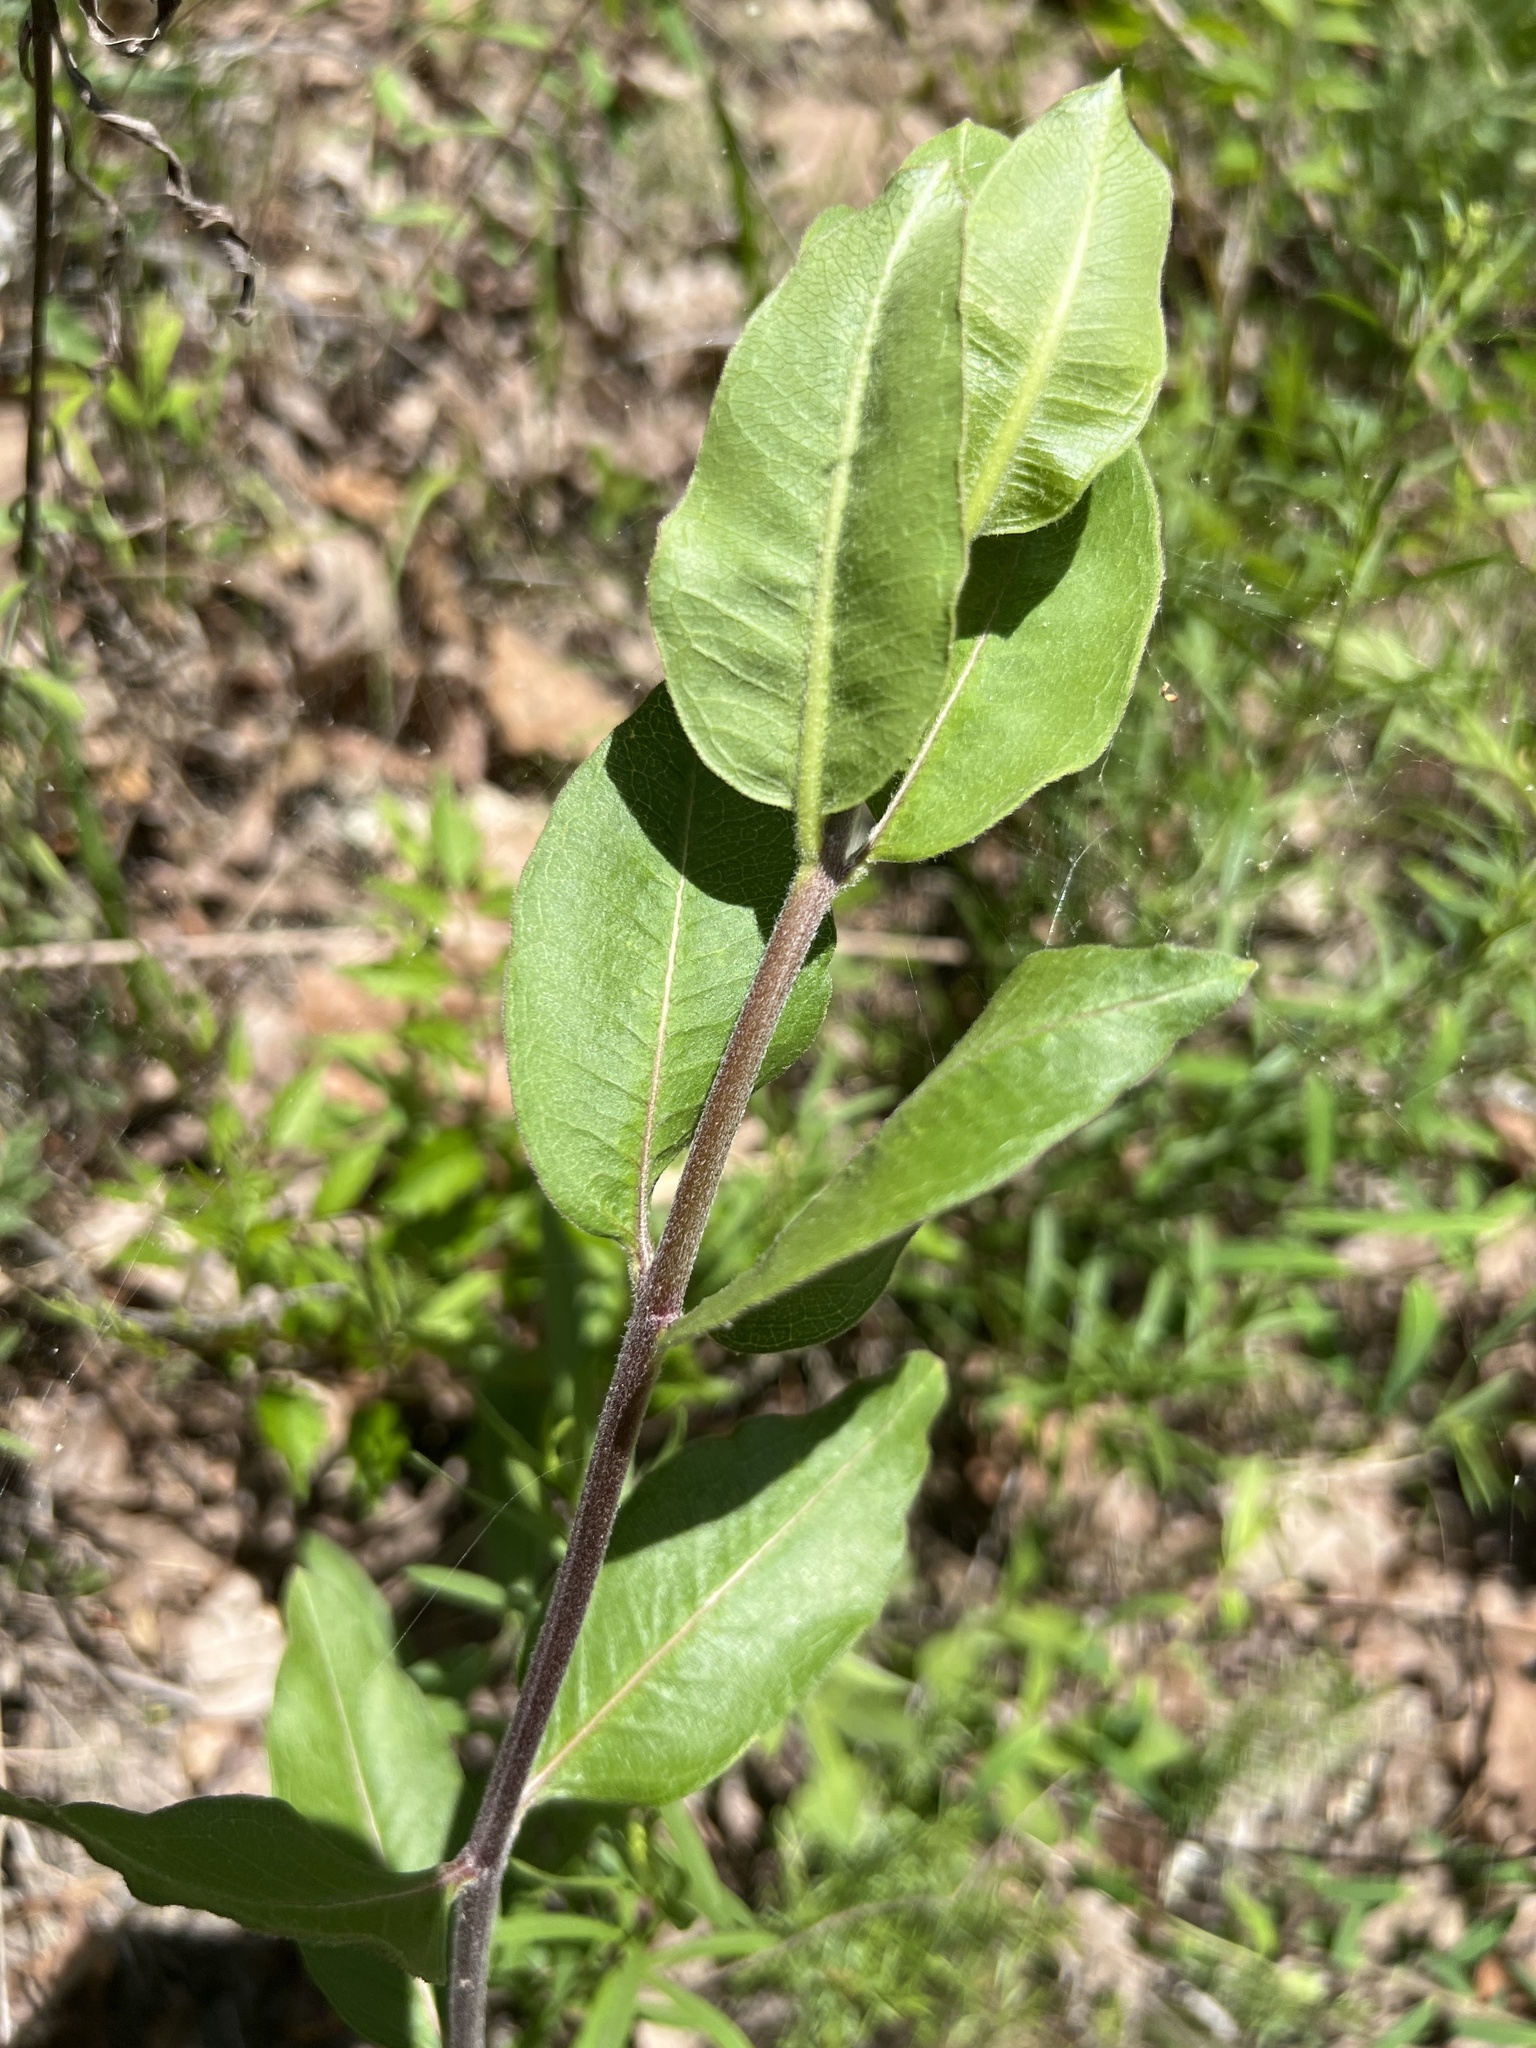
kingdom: Plantae
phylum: Tracheophyta
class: Magnoliopsida
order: Gentianales
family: Apocynaceae
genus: Asclepias
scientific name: Asclepias viridiflora
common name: Green comet milkweed
